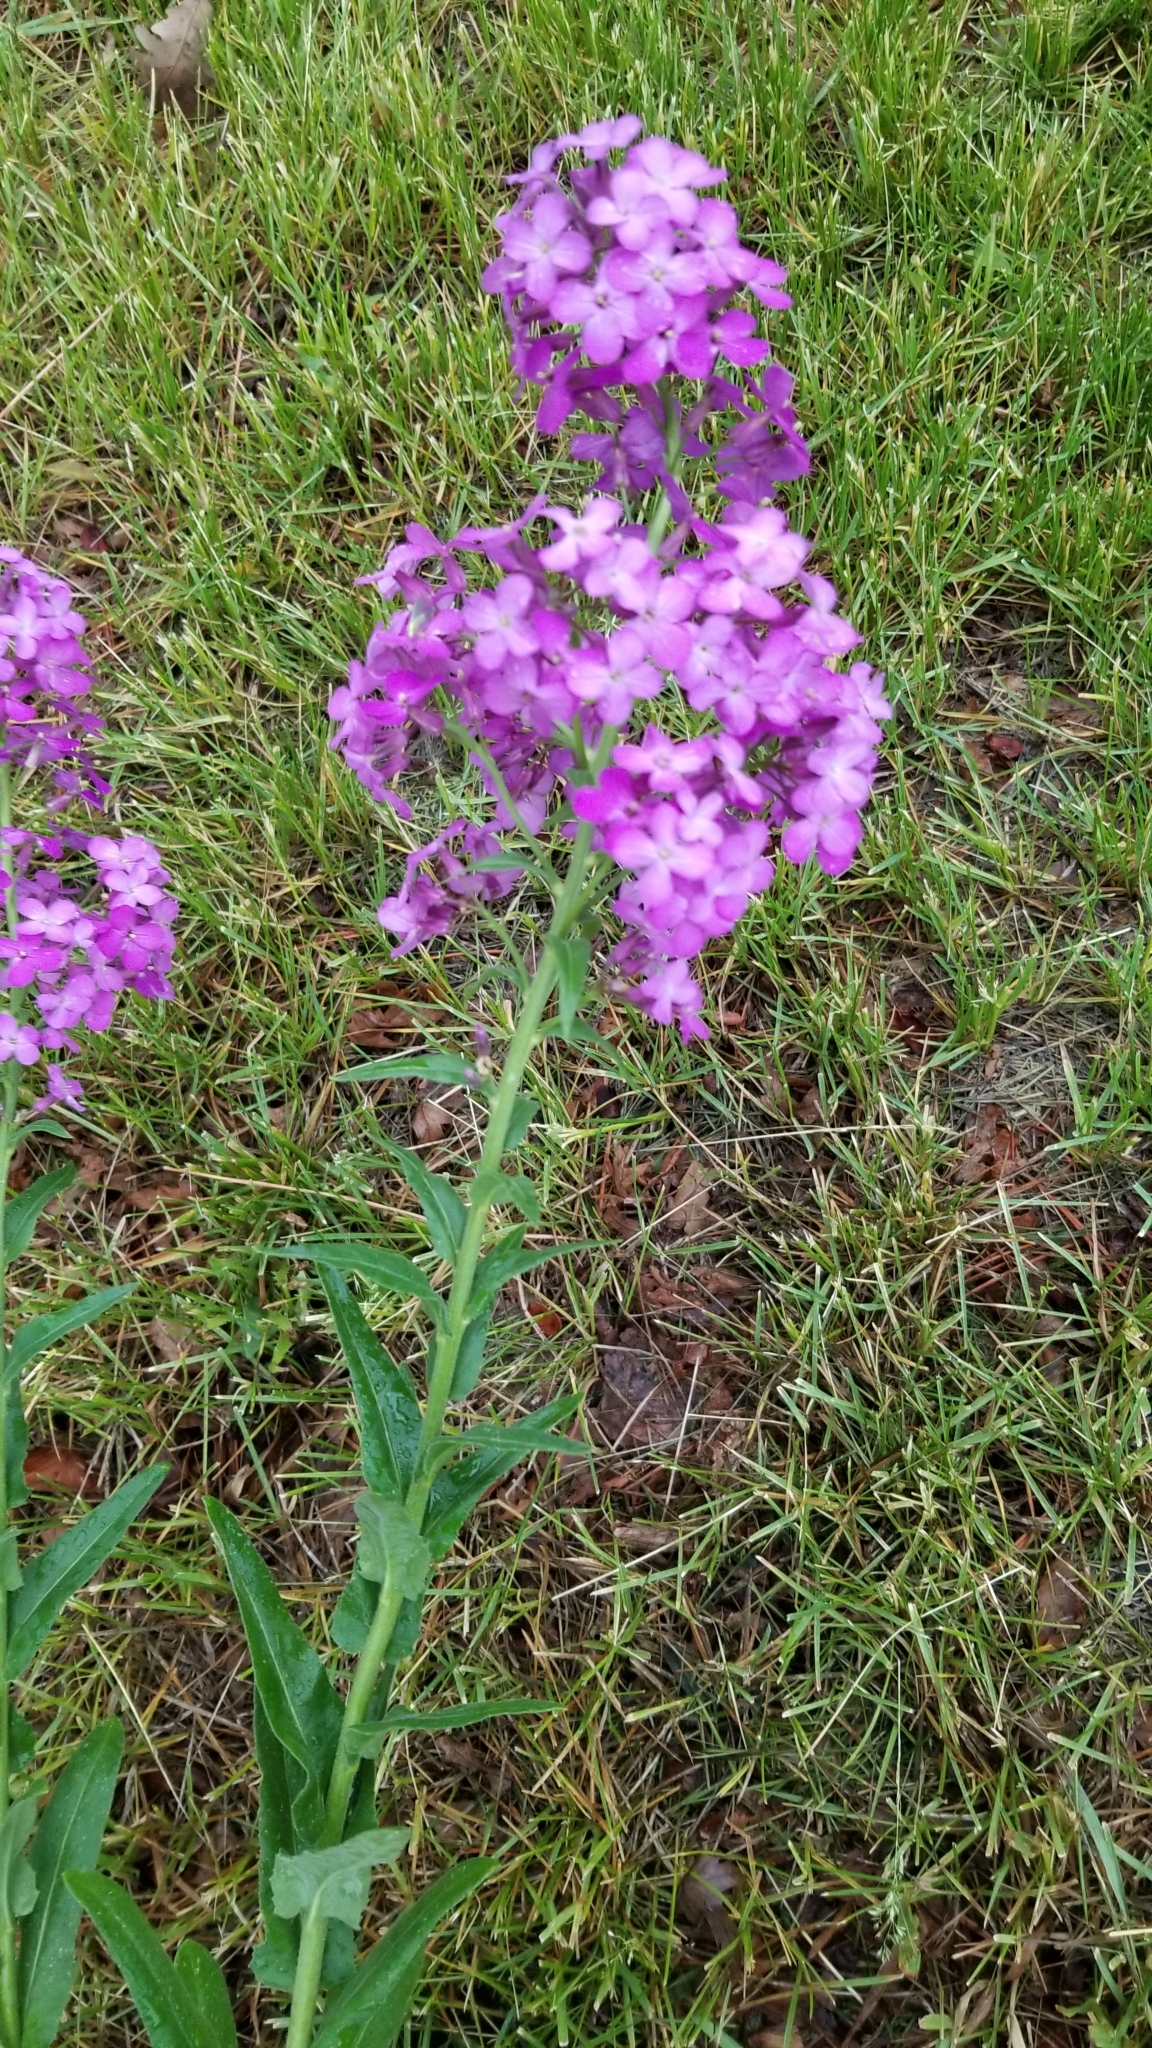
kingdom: Plantae
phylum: Tracheophyta
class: Magnoliopsida
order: Brassicales
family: Brassicaceae
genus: Hesperis
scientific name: Hesperis matronalis
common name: Dame's-violet
